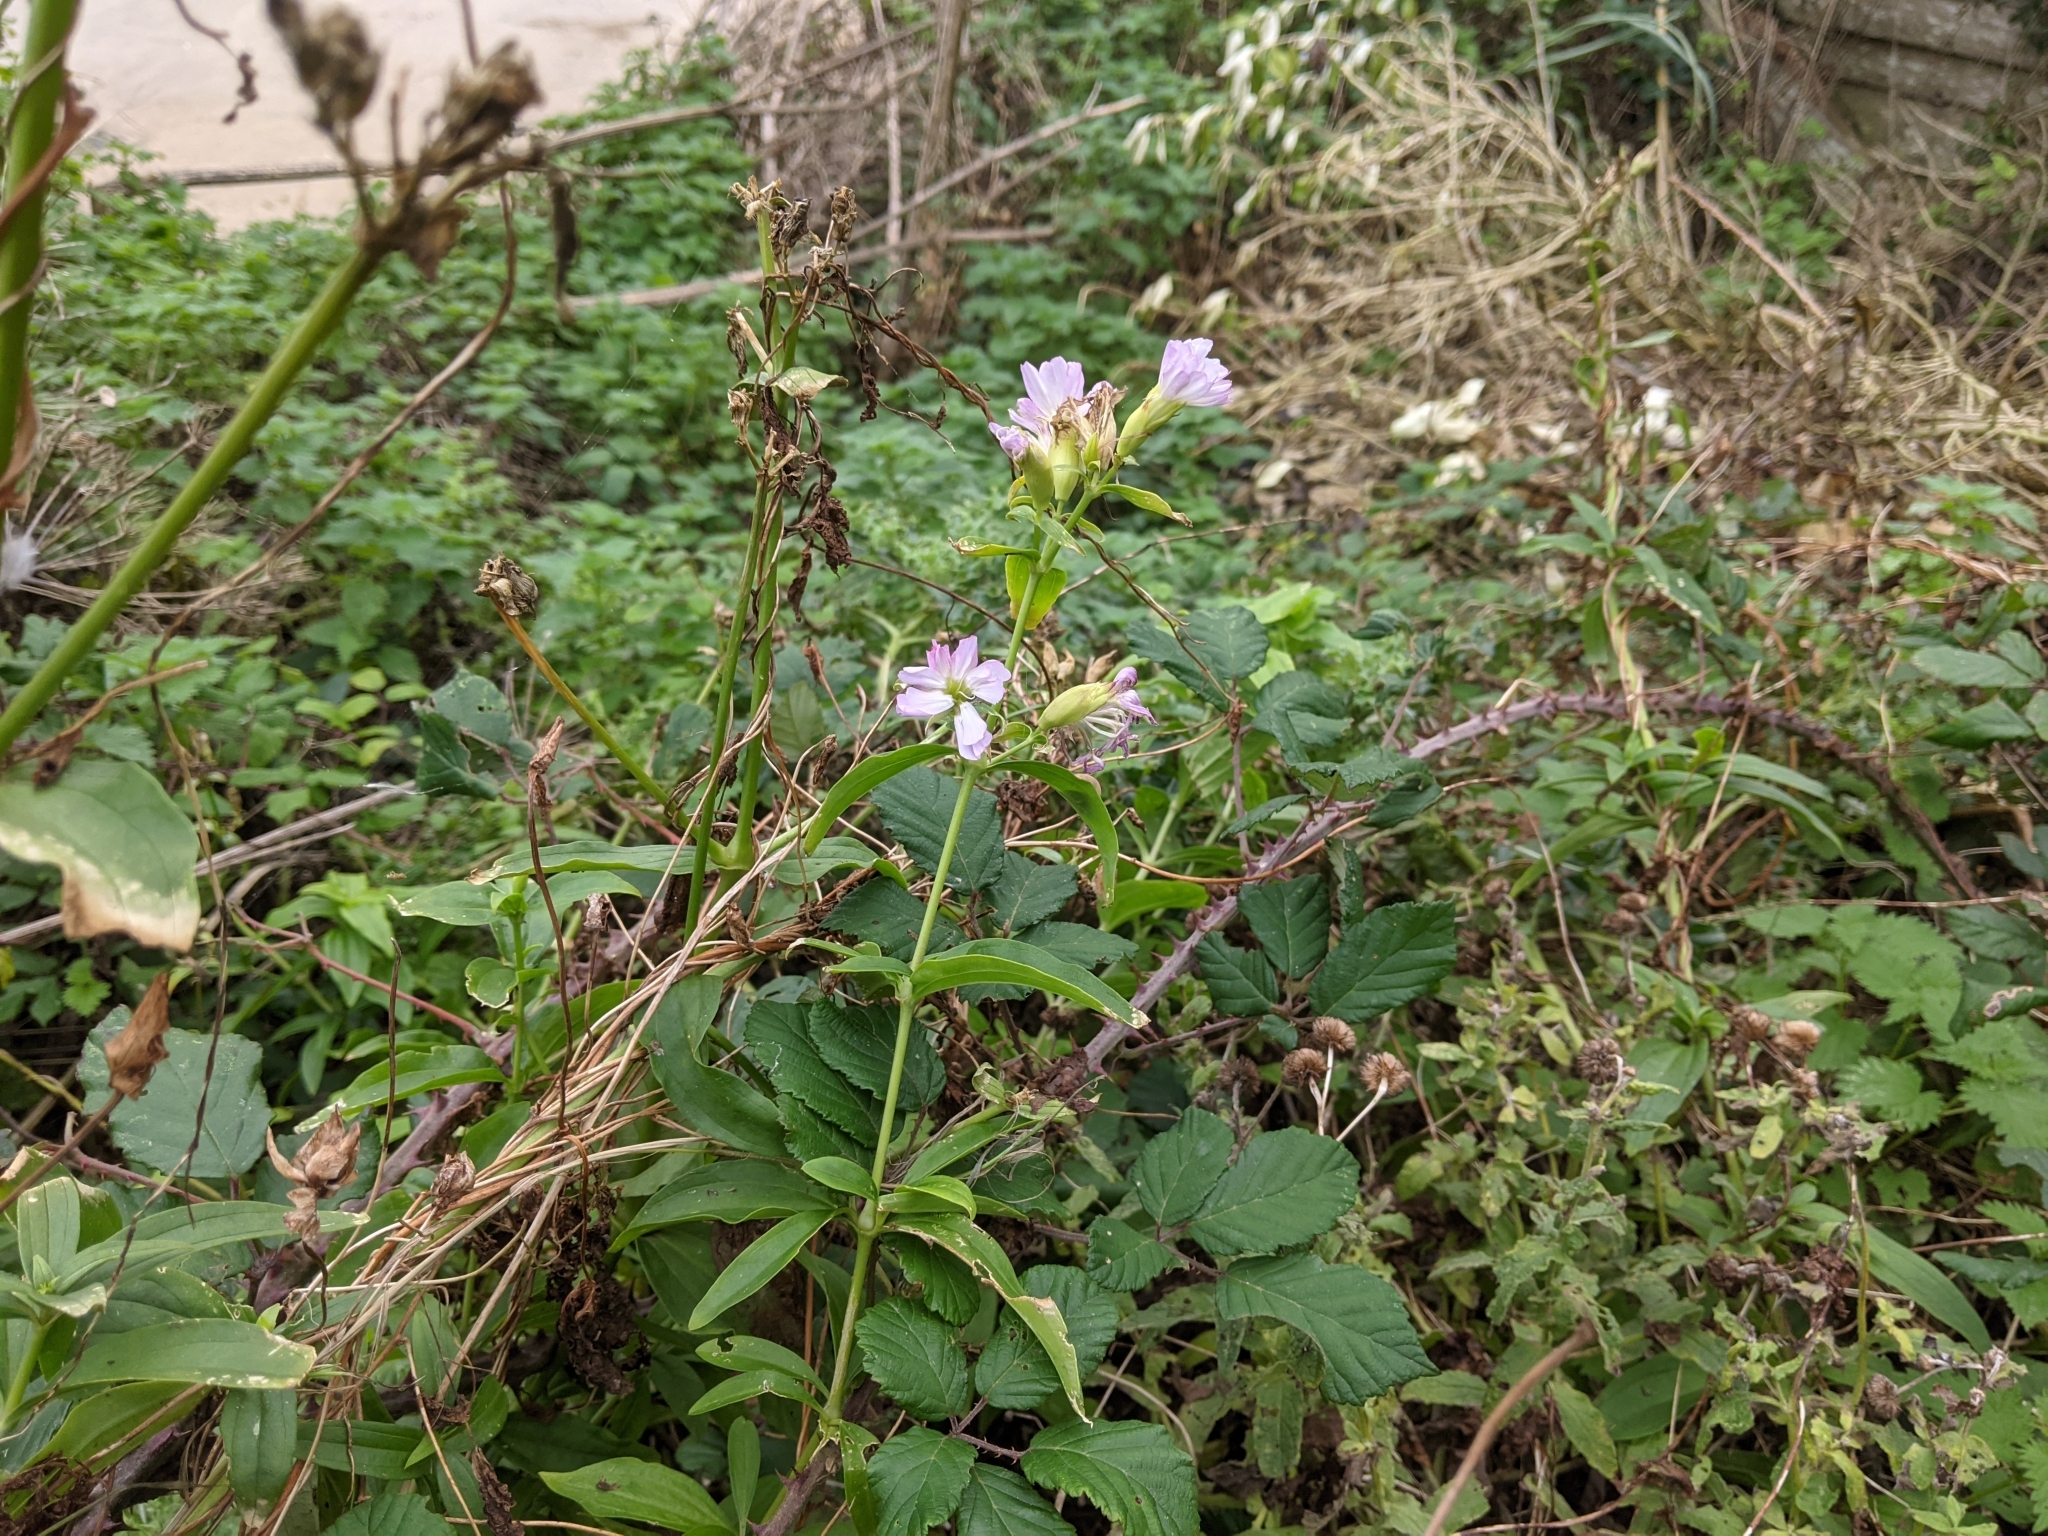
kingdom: Plantae
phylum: Tracheophyta
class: Magnoliopsida
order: Caryophyllales
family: Caryophyllaceae
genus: Saponaria
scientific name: Saponaria officinalis
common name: Soapwort
